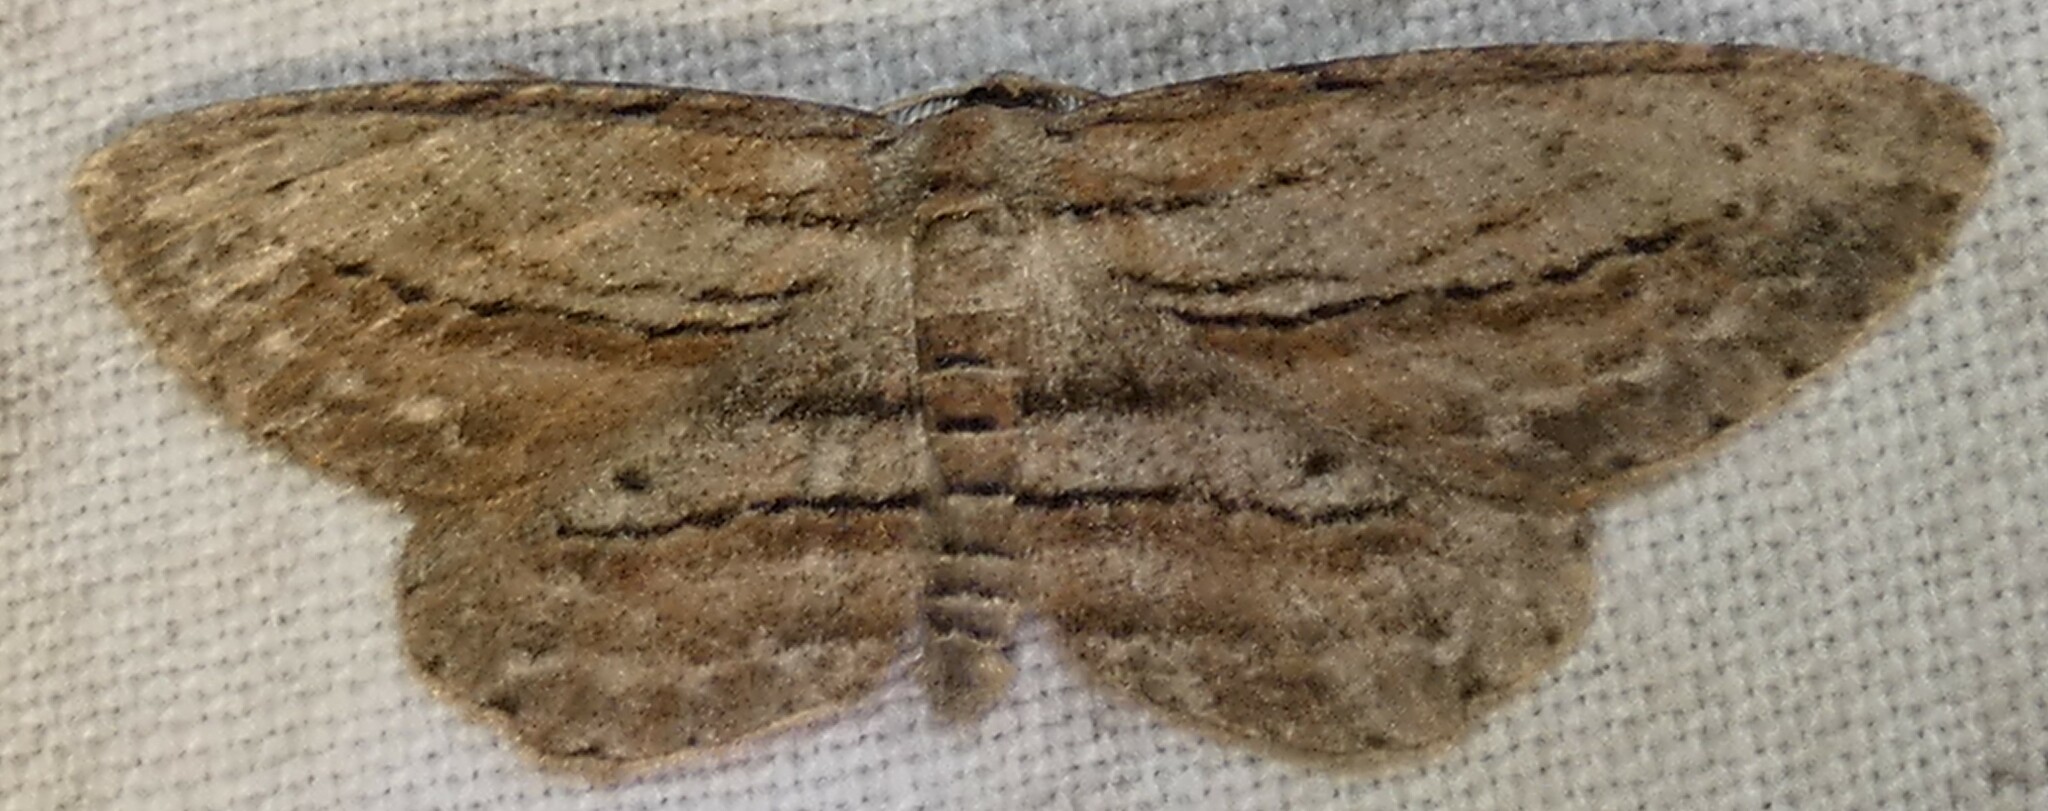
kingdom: Animalia
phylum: Arthropoda
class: Insecta
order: Lepidoptera
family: Geometridae
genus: Glena
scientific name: Glena plumosaria
